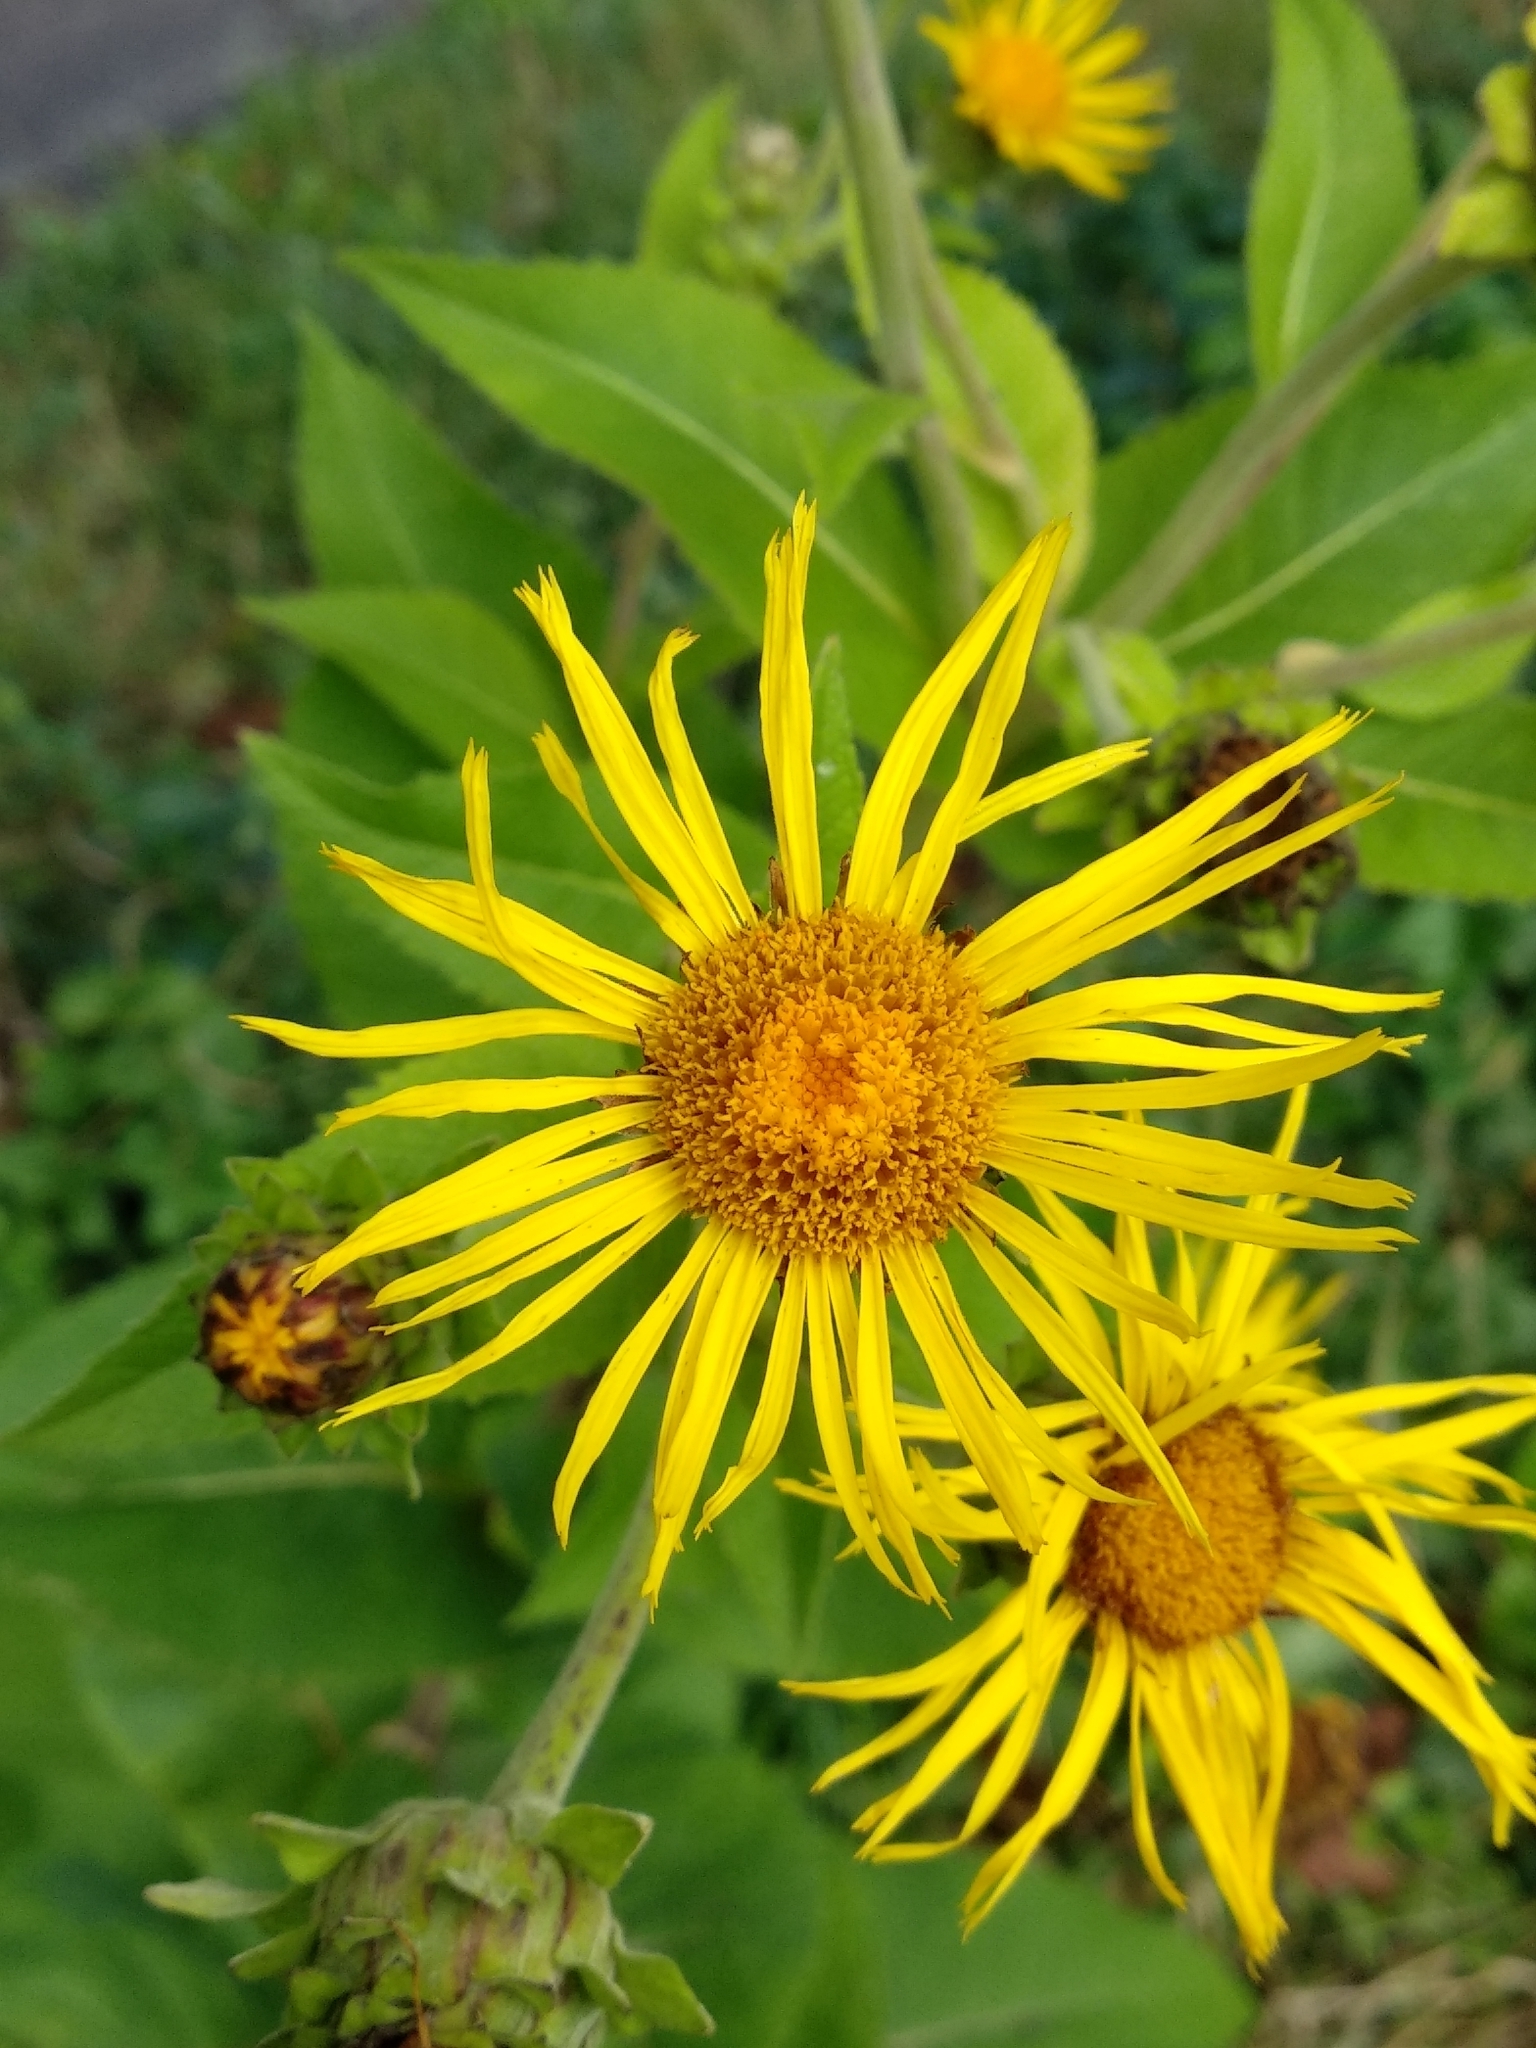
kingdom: Plantae
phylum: Tracheophyta
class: Magnoliopsida
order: Asterales
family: Asteraceae
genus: Inula
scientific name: Inula helenium
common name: Elecampane
